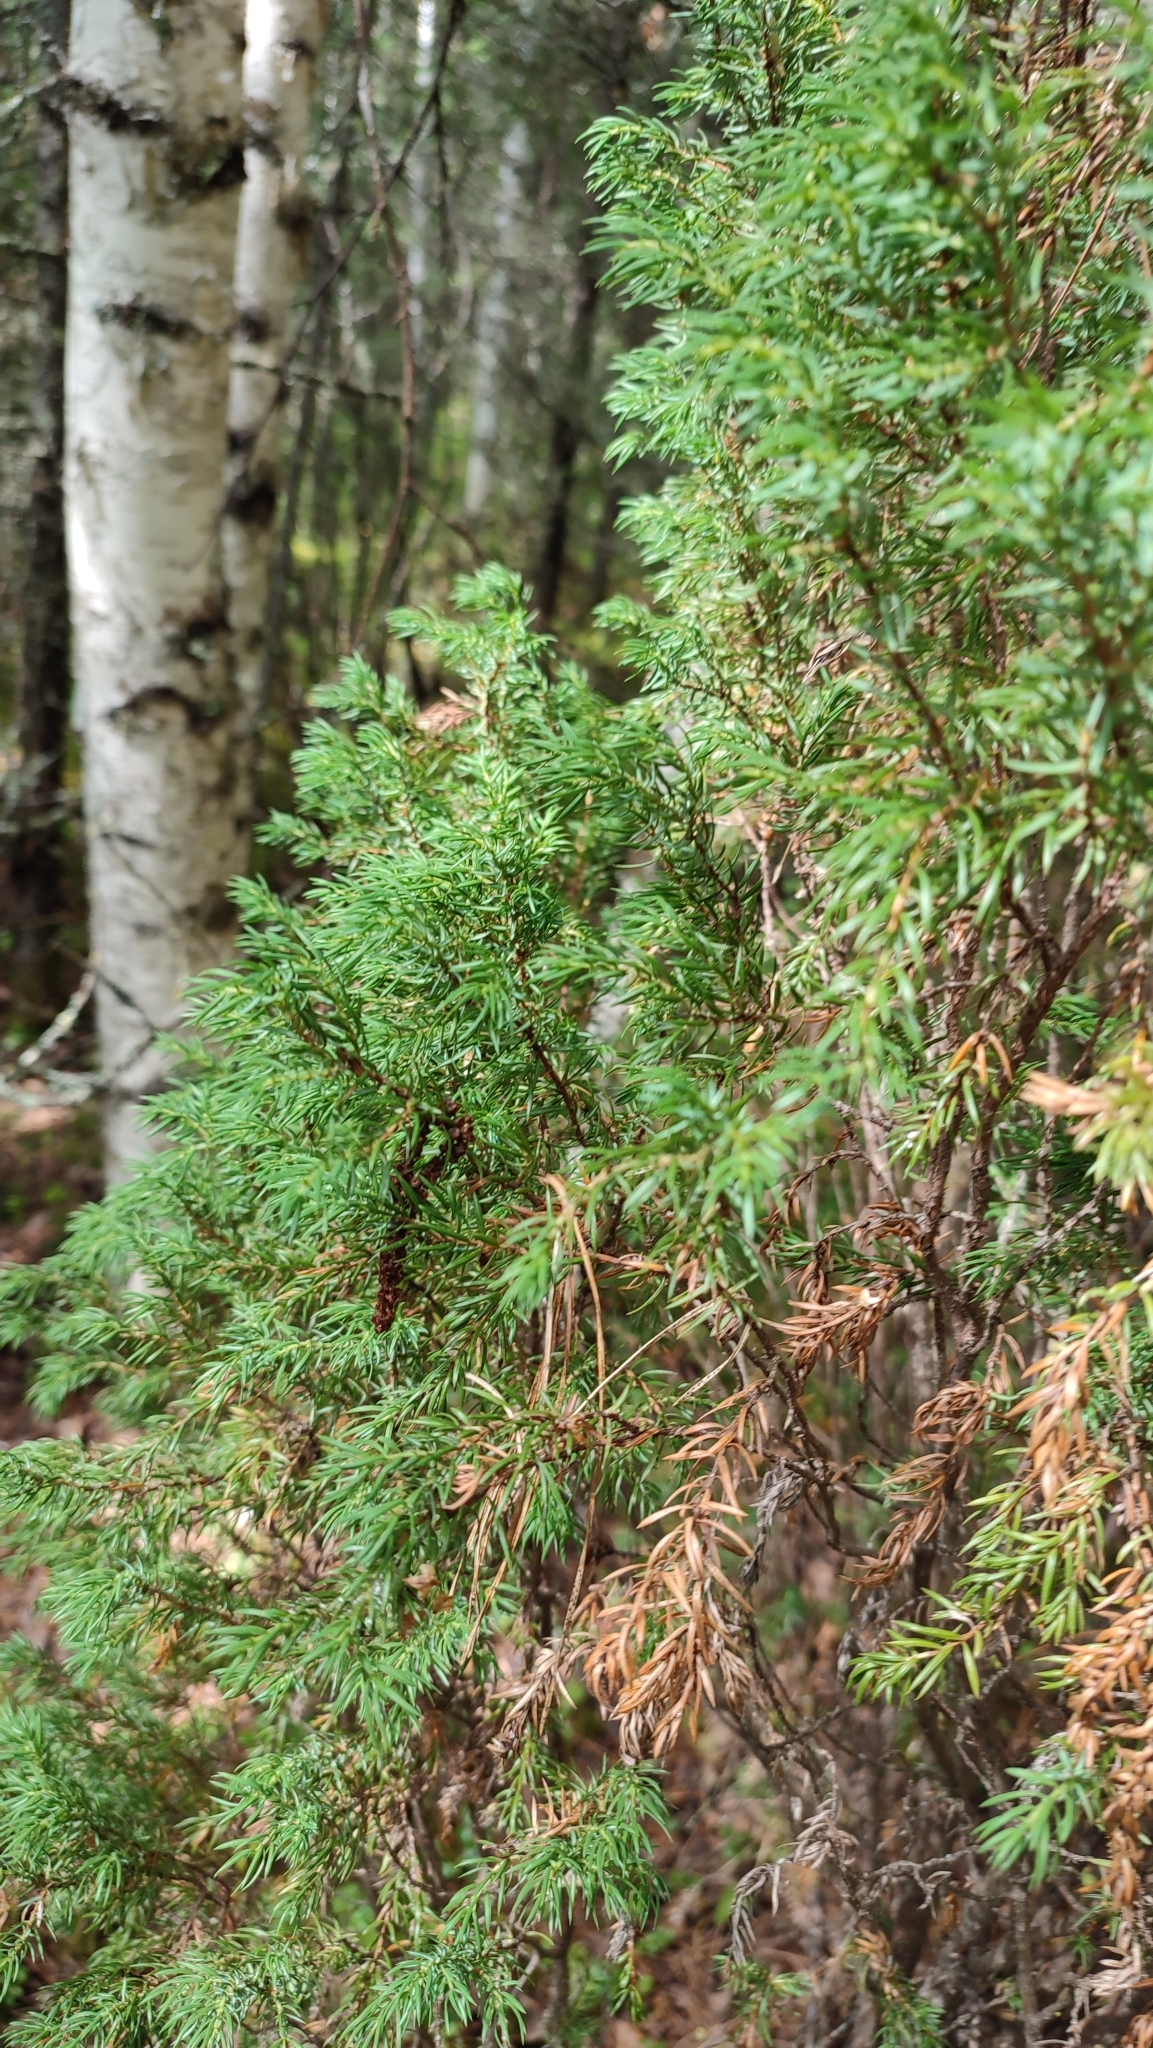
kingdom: Plantae
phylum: Tracheophyta
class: Pinopsida
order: Pinales
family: Cupressaceae
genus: Juniperus
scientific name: Juniperus communis
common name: Common juniper
